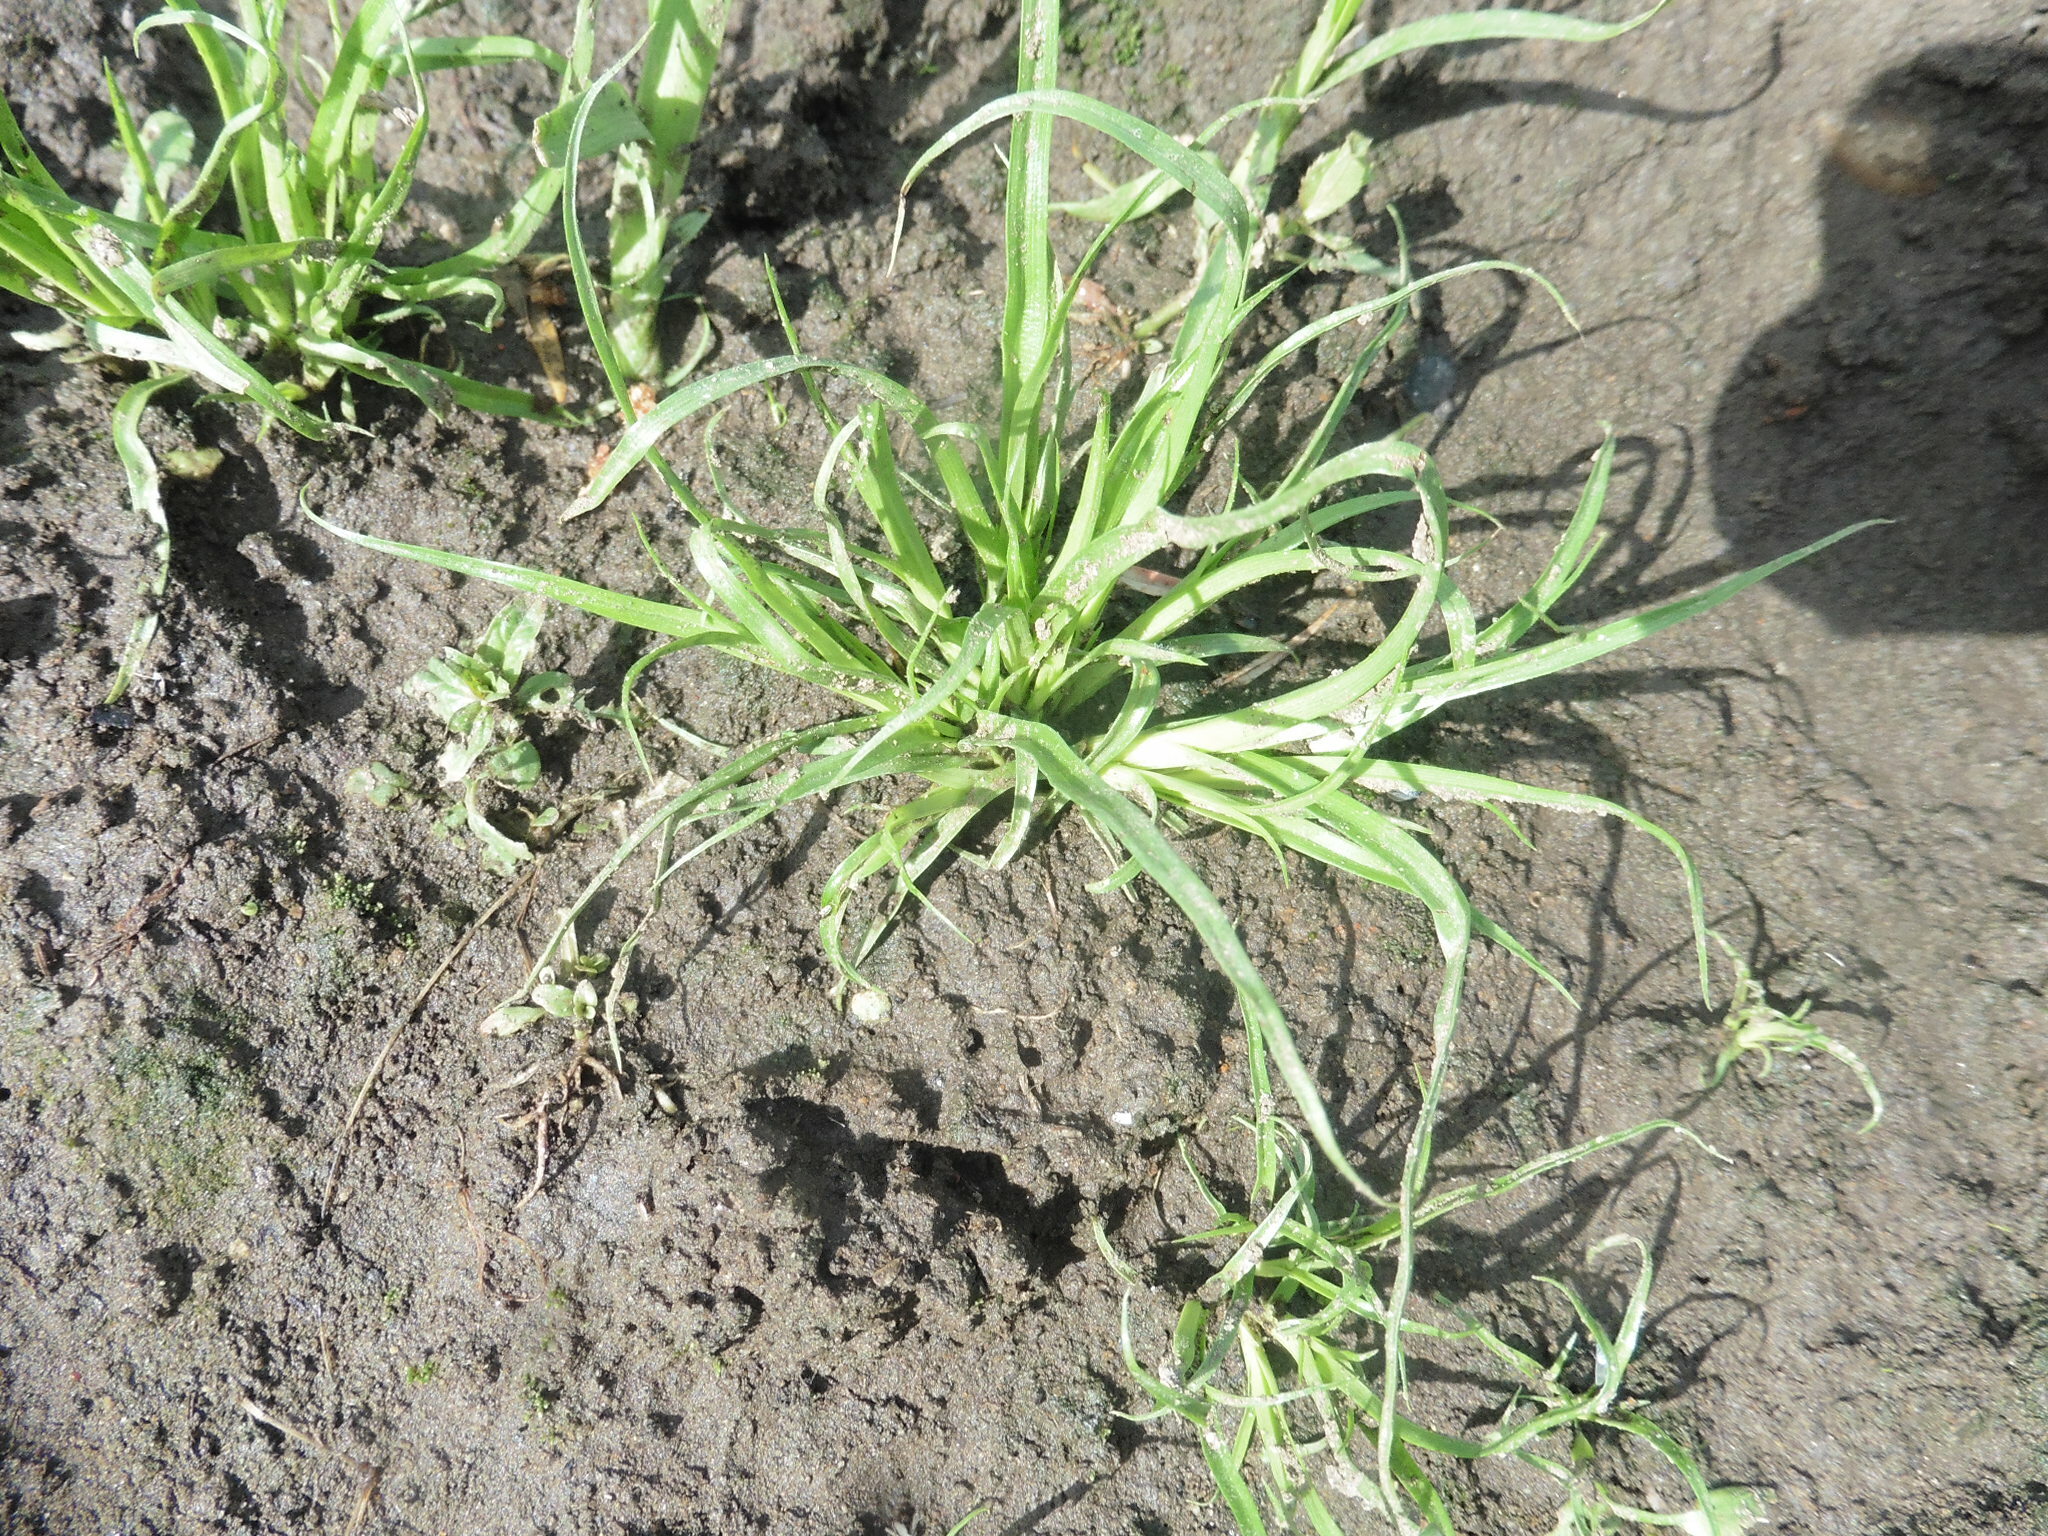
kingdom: Plantae
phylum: Tracheophyta
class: Liliopsida
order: Poales
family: Cyperaceae
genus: Cyperus
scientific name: Cyperus fuscus
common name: Brown galingale
